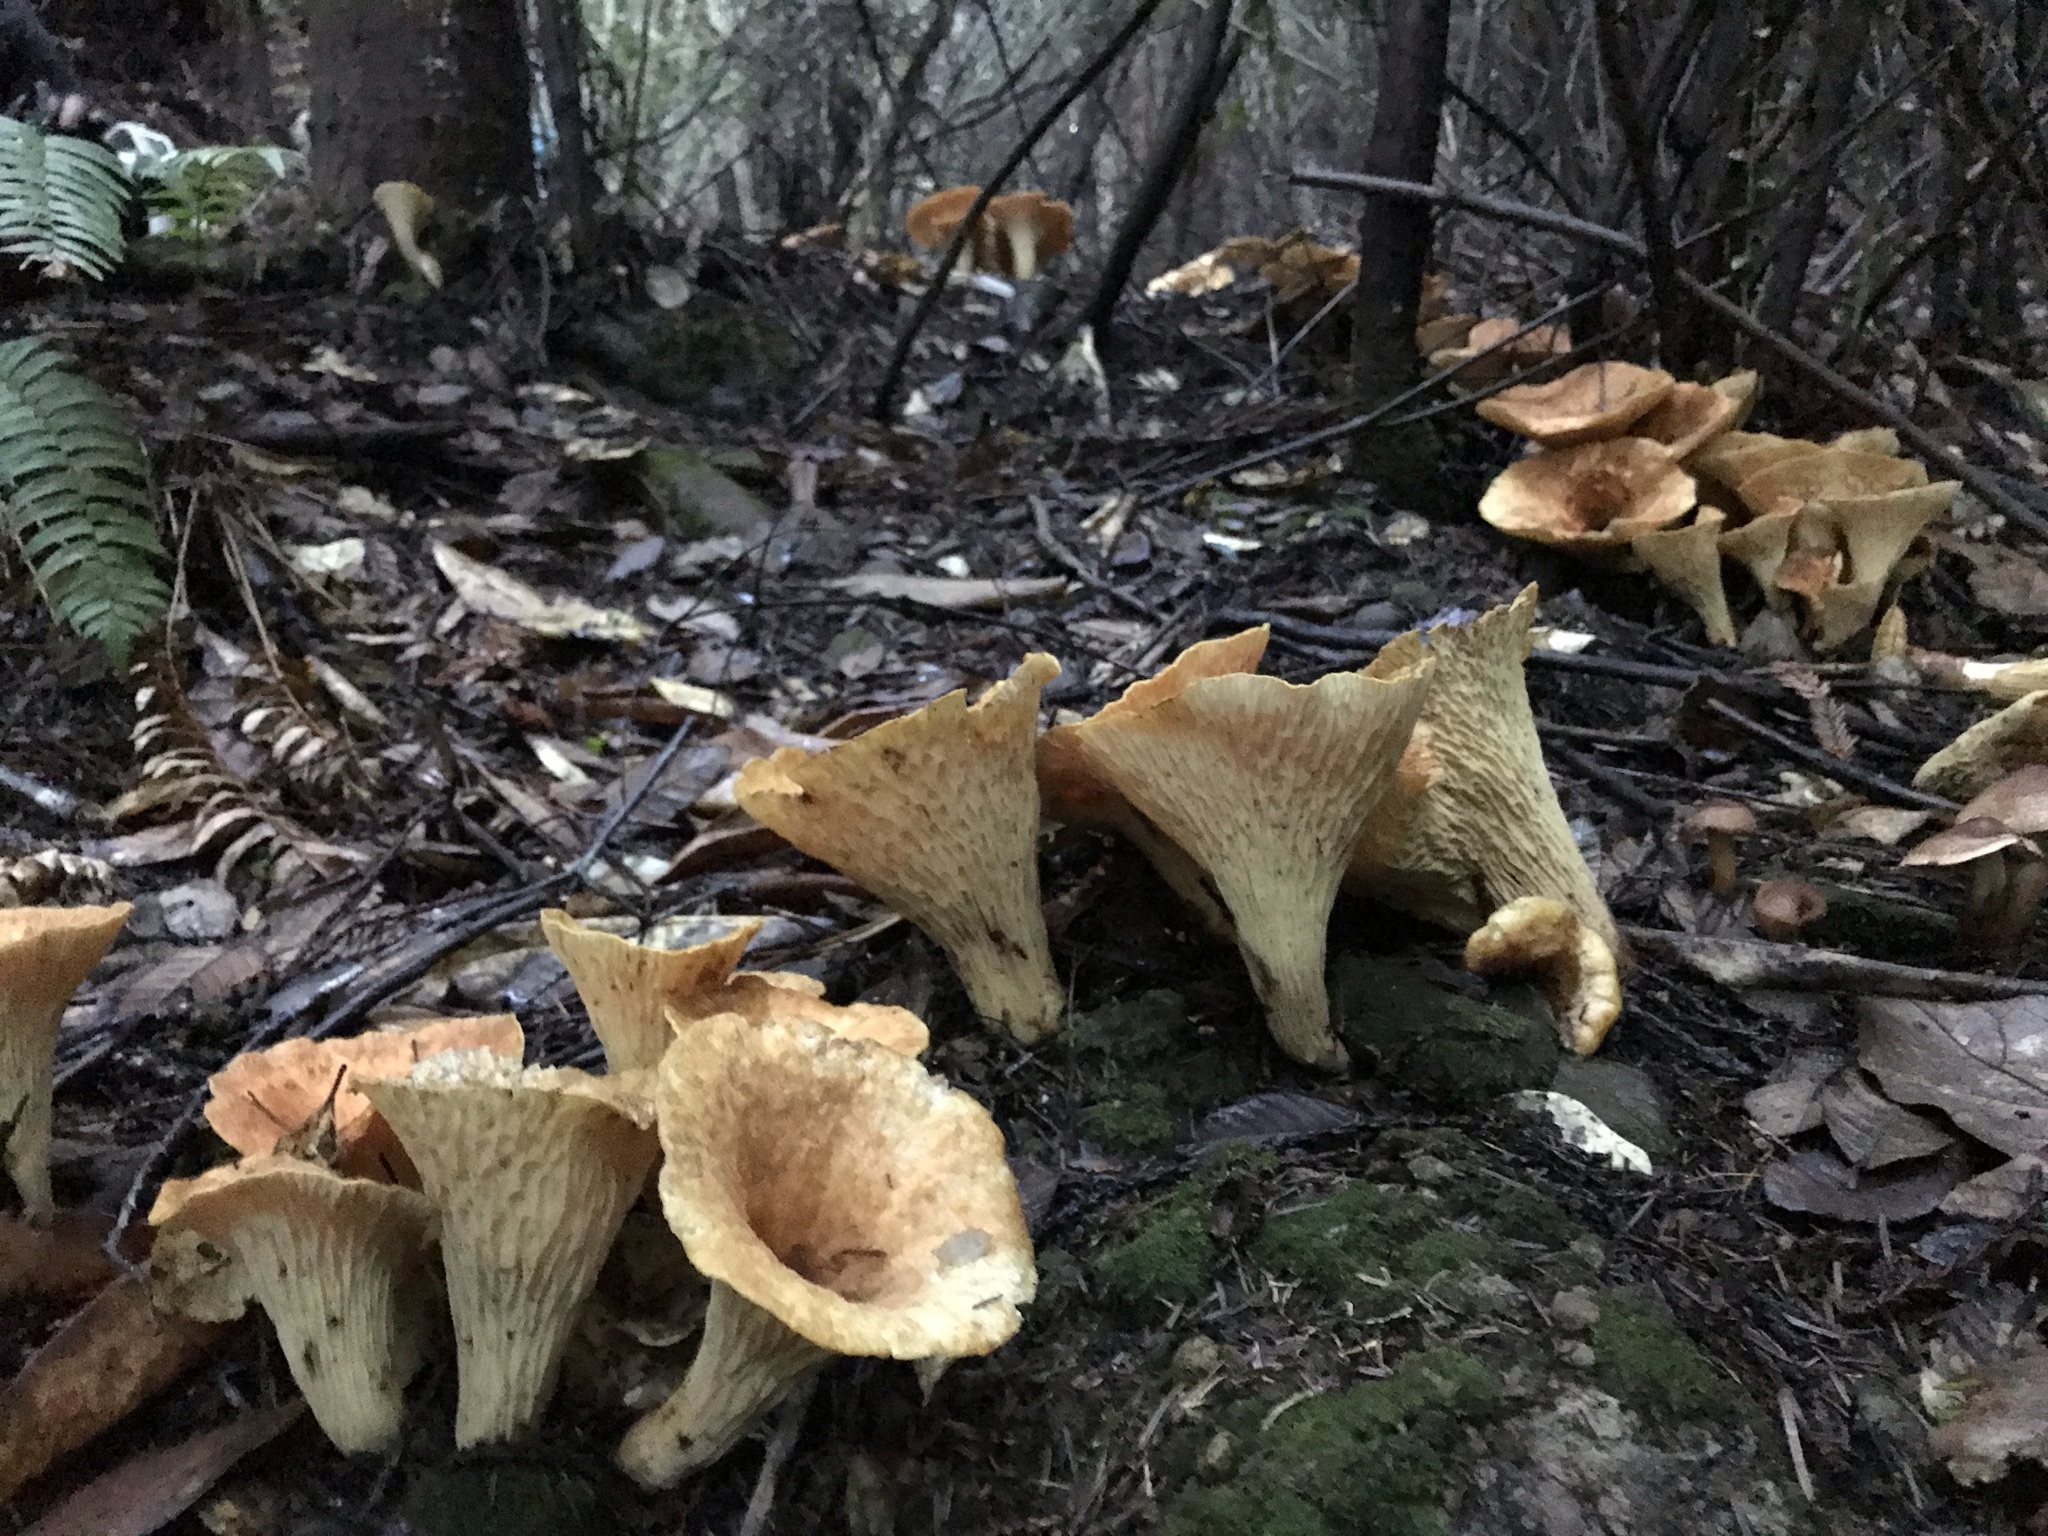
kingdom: Fungi
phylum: Basidiomycota
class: Agaricomycetes
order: Gomphales
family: Gomphaceae
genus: Turbinellus
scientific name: Turbinellus floccosus
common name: Scaly chanterelle
